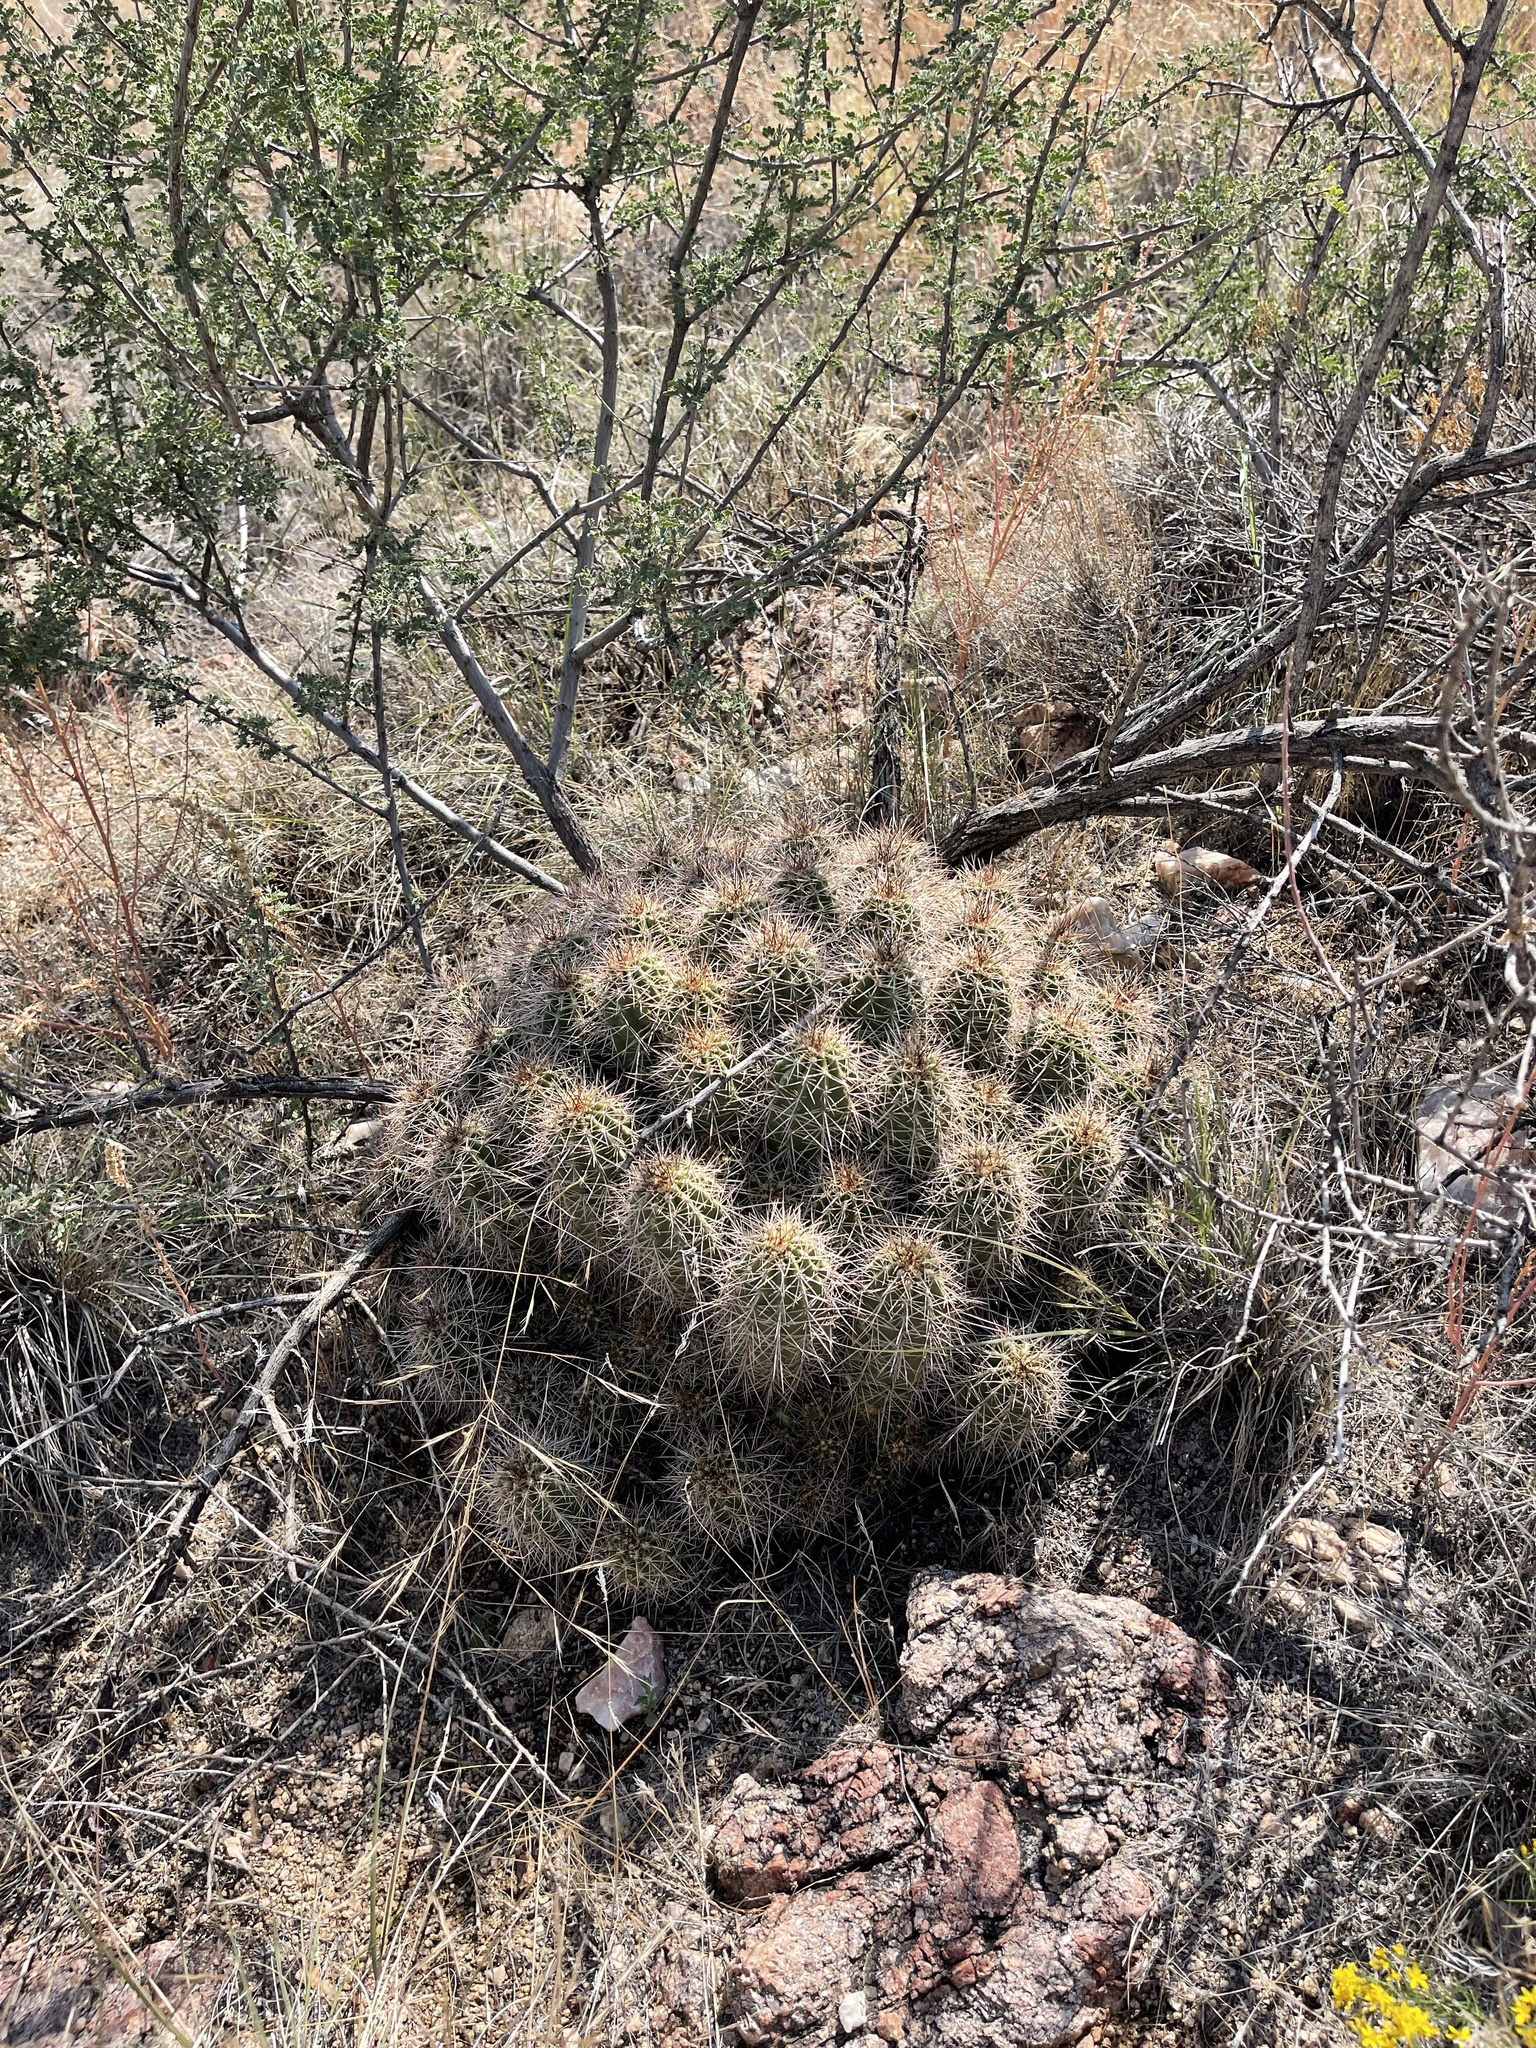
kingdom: Plantae
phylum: Tracheophyta
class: Magnoliopsida
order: Caryophyllales
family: Cactaceae
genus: Echinocereus
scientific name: Echinocereus bakeri
